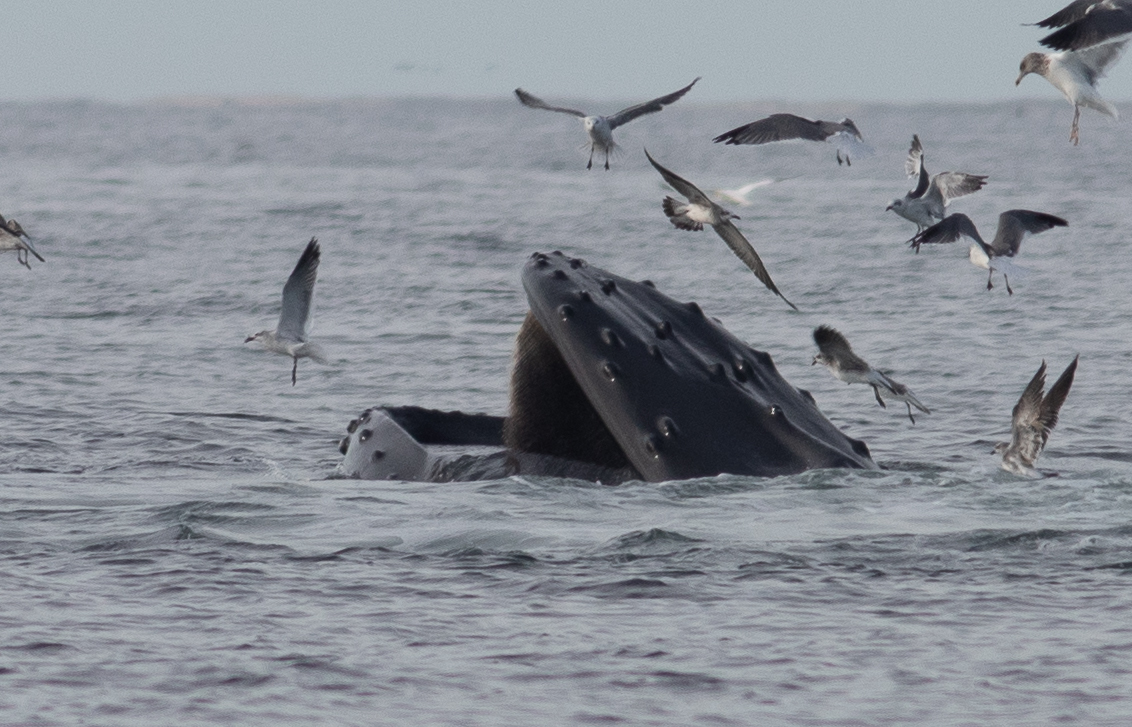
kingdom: Animalia
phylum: Chordata
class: Mammalia
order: Cetacea
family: Balaenopteridae
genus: Megaptera
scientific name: Megaptera novaeangliae
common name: Humpback whale
